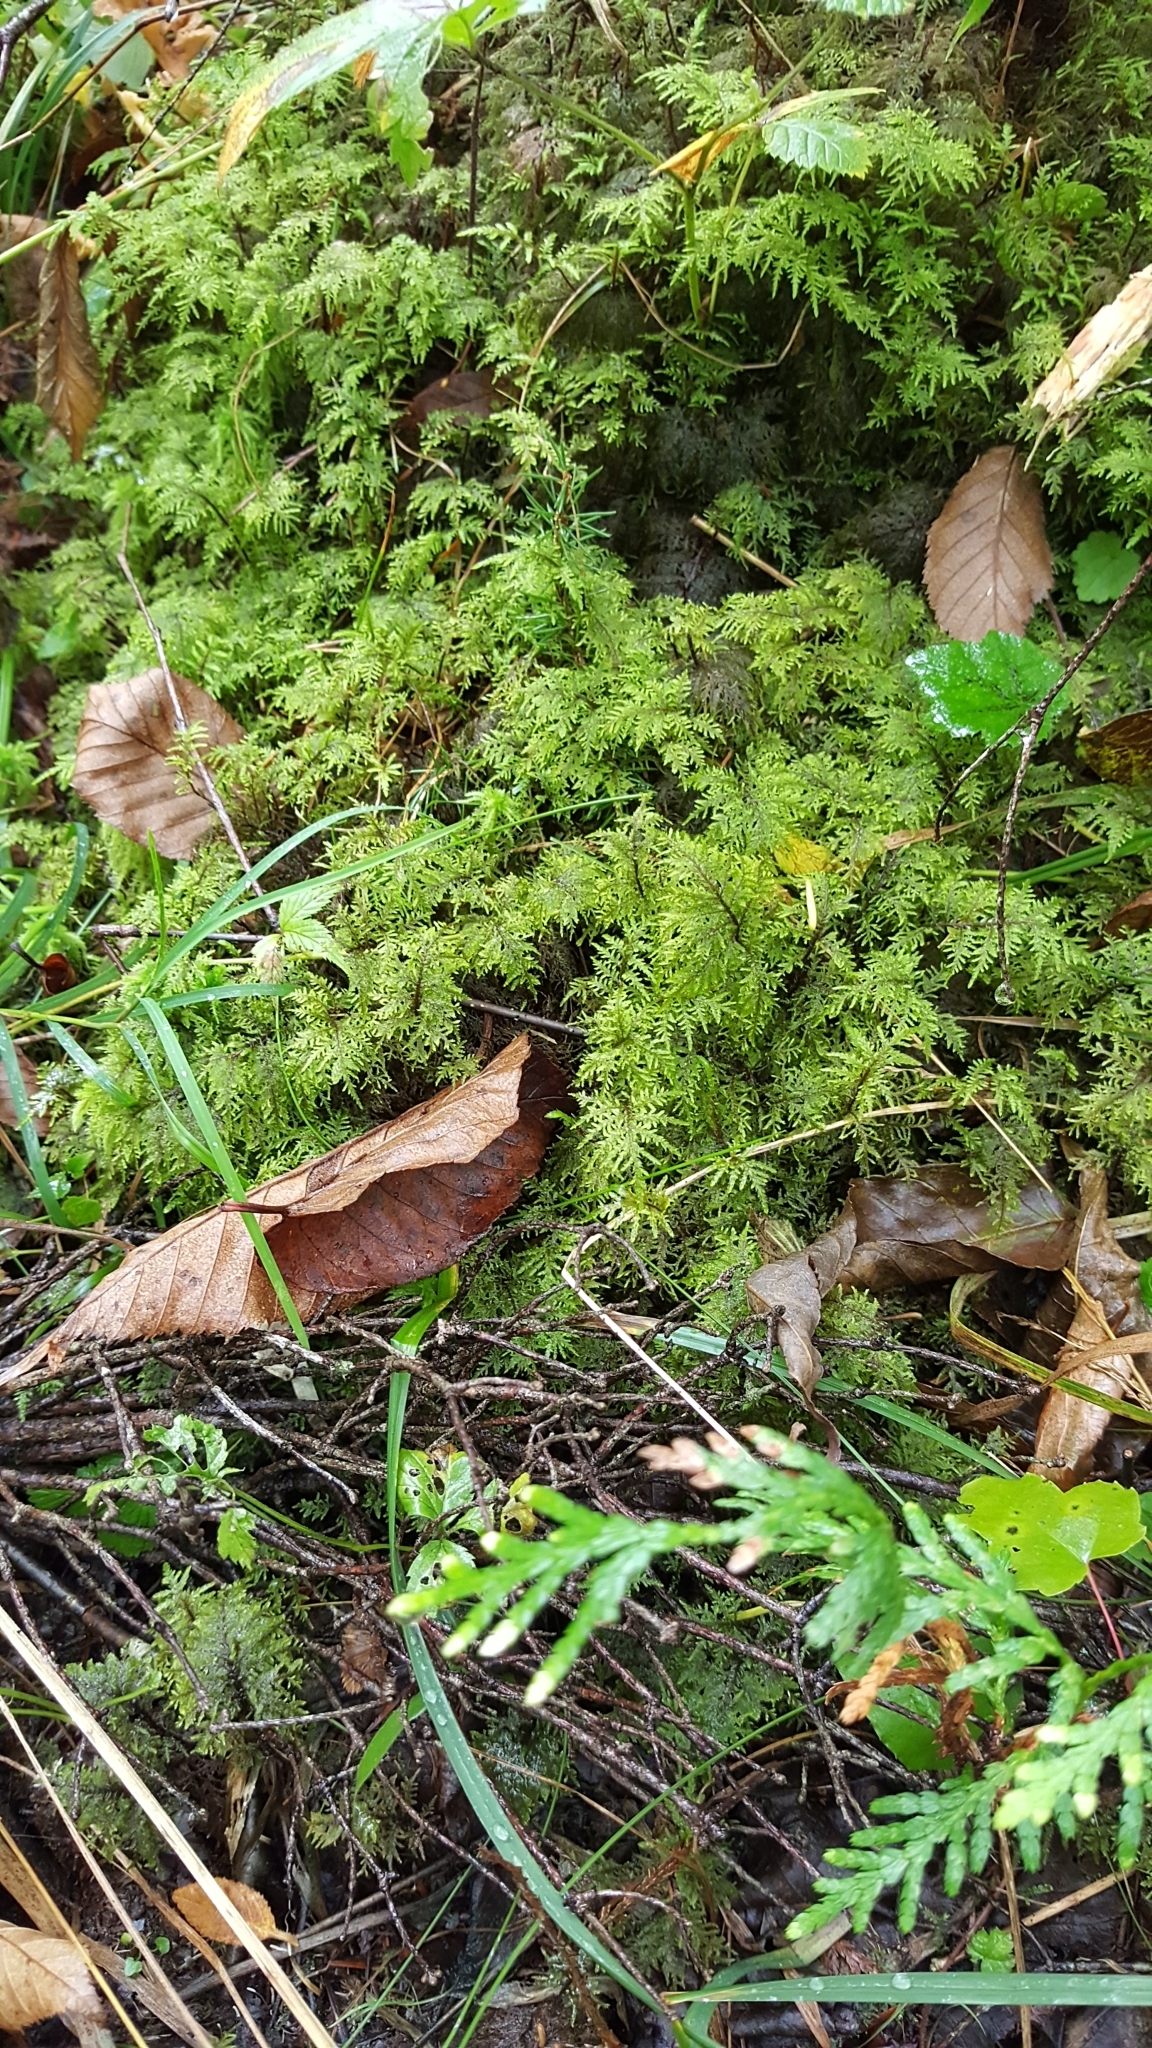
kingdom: Plantae
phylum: Bryophyta
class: Bryopsida
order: Hypnales
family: Hylocomiaceae
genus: Hylocomium
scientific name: Hylocomium splendens
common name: Stairstep moss
